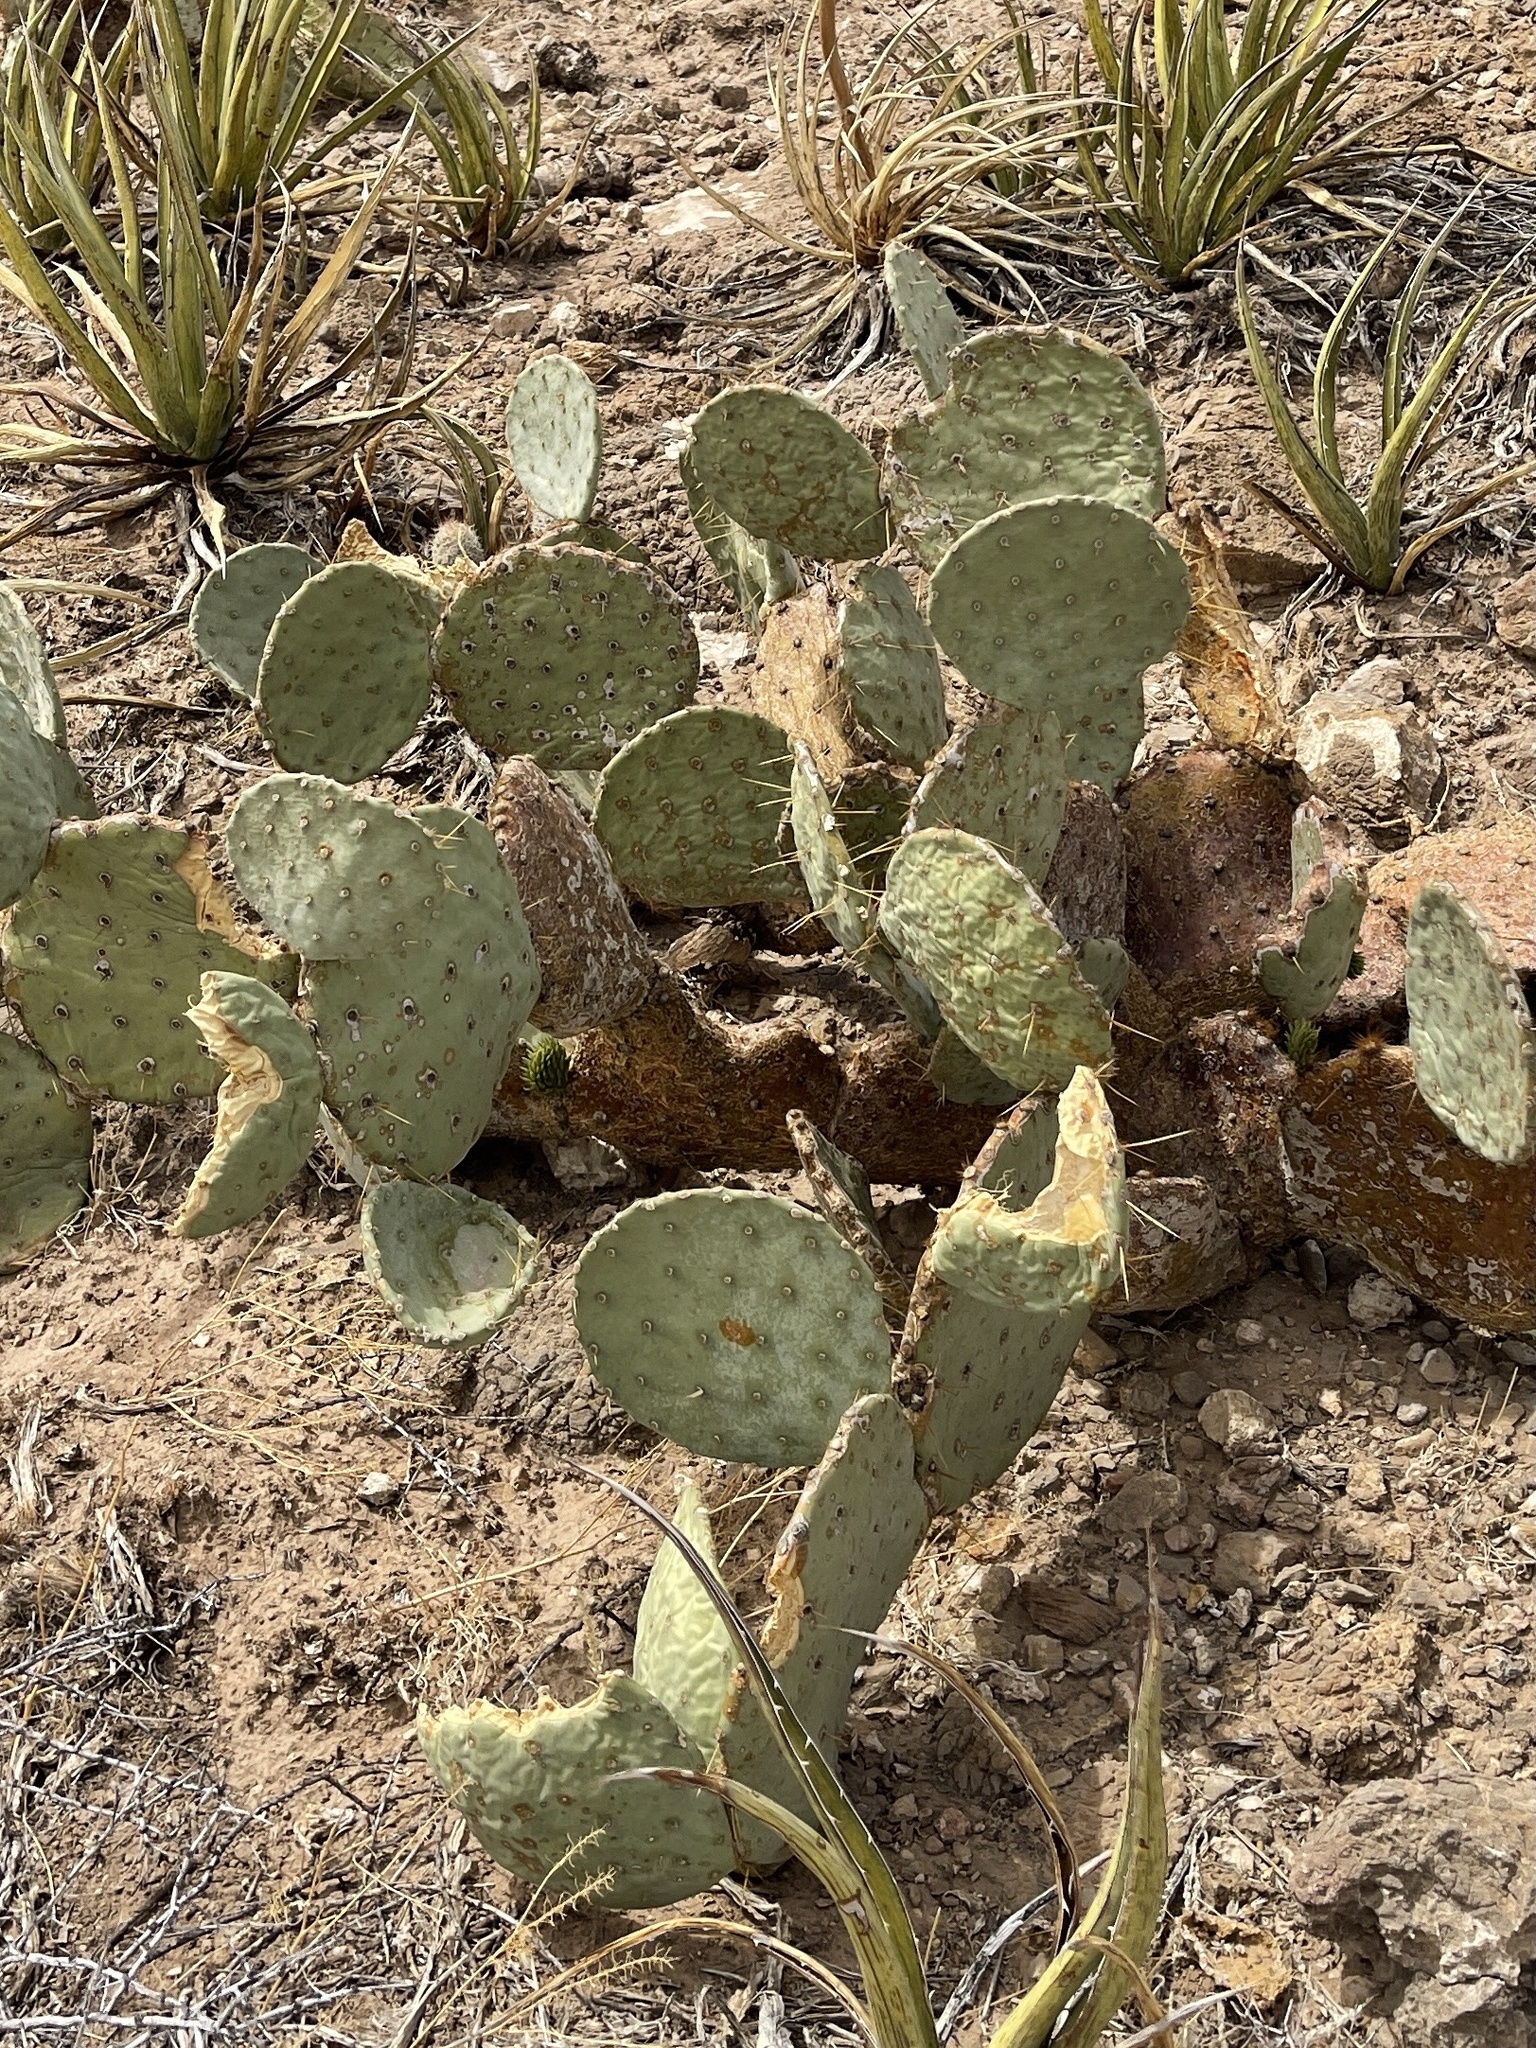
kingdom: Plantae
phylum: Tracheophyta
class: Magnoliopsida
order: Caryophyllales
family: Cactaceae
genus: Opuntia
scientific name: Opuntia engelmannii
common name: Cactus-apple
